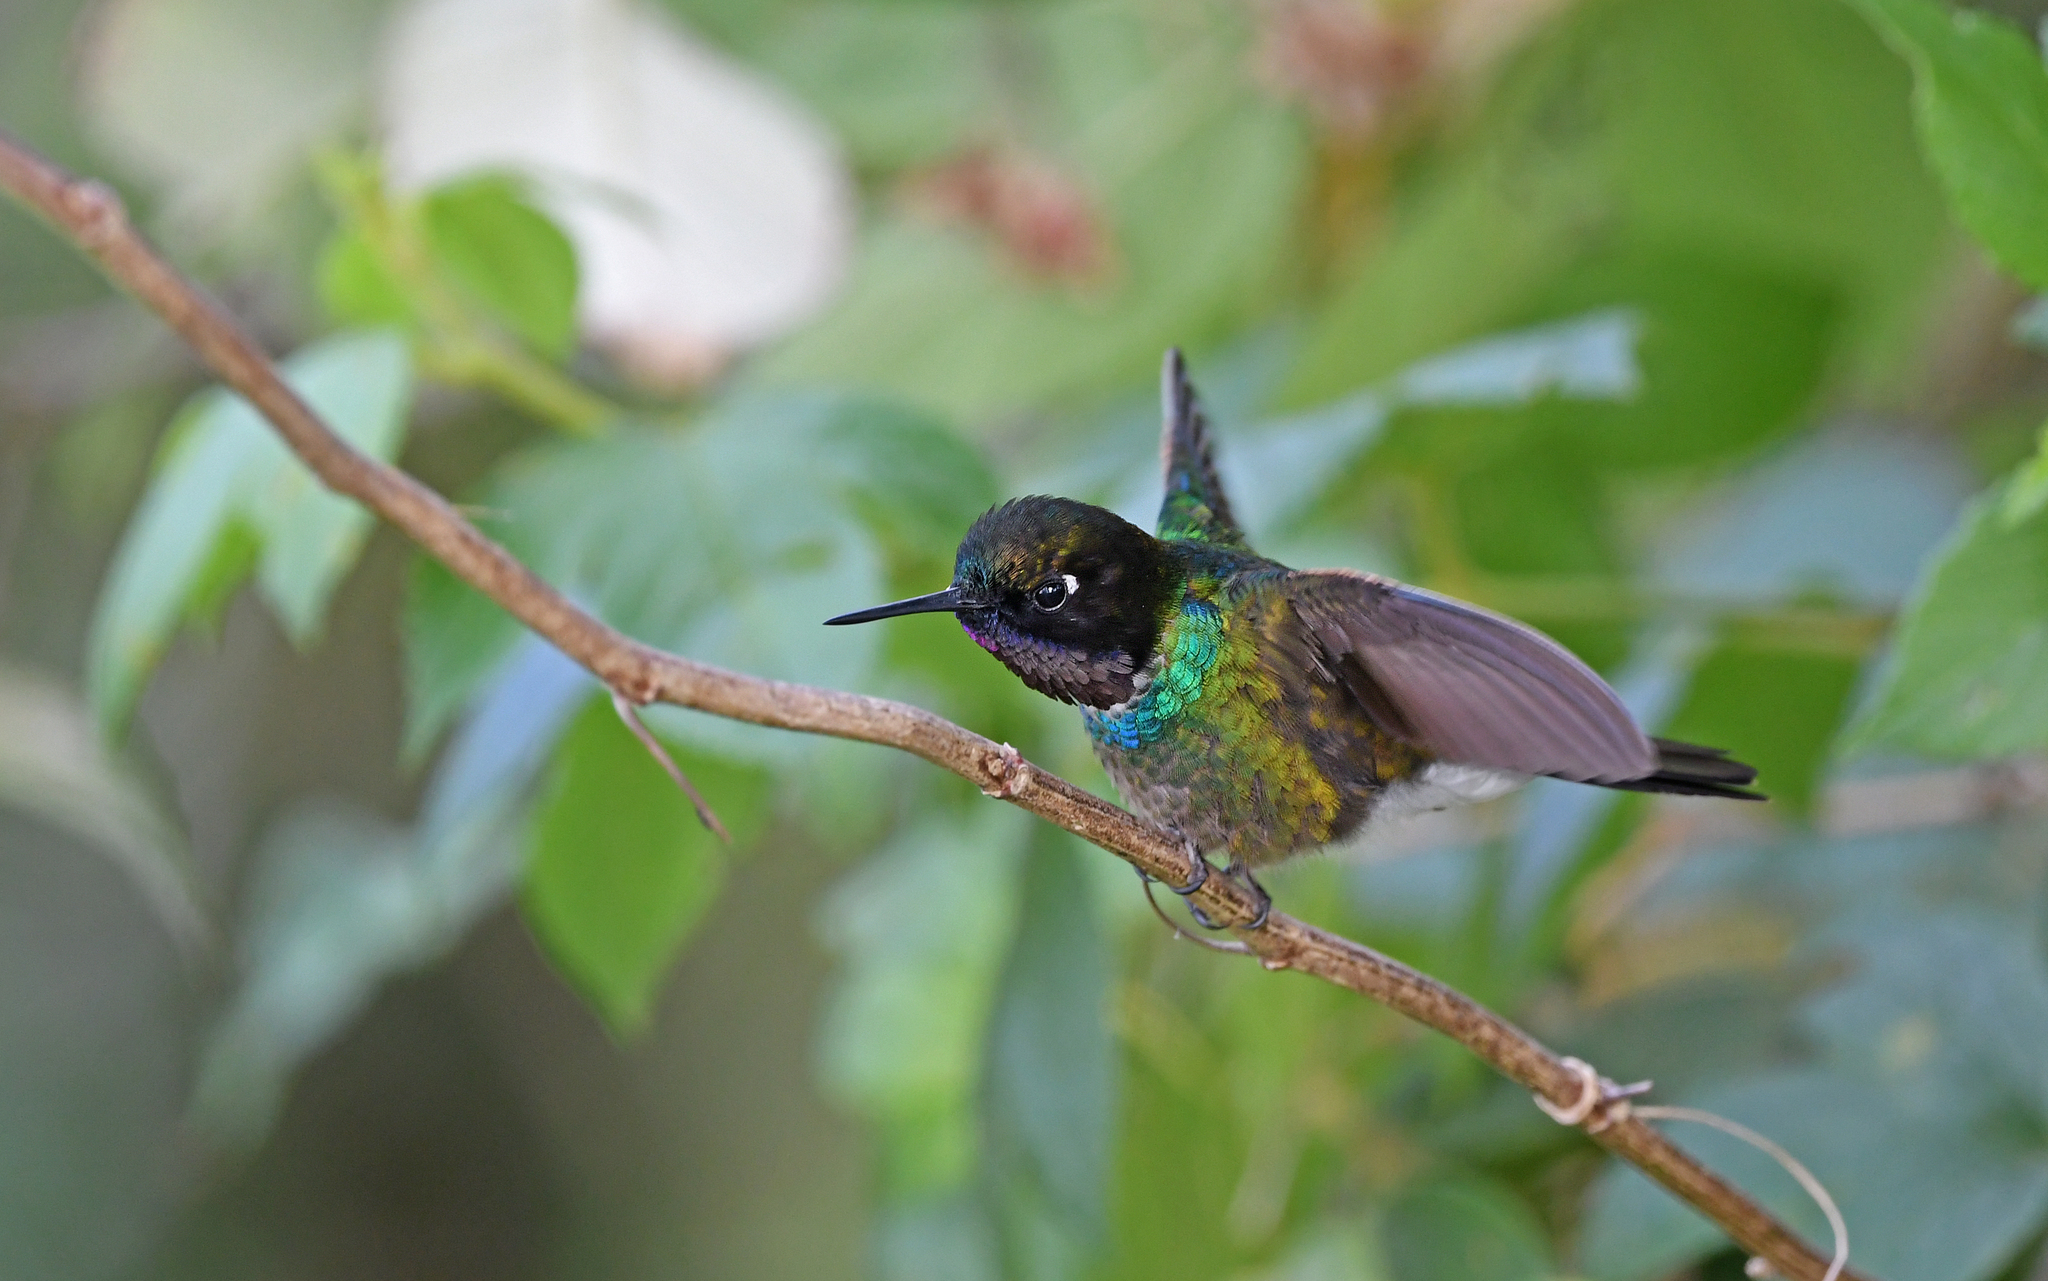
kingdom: Animalia
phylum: Chordata
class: Aves
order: Apodiformes
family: Trochilidae
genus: Heliangelus
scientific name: Heliangelus clarisse
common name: Longuemare's sunangel
